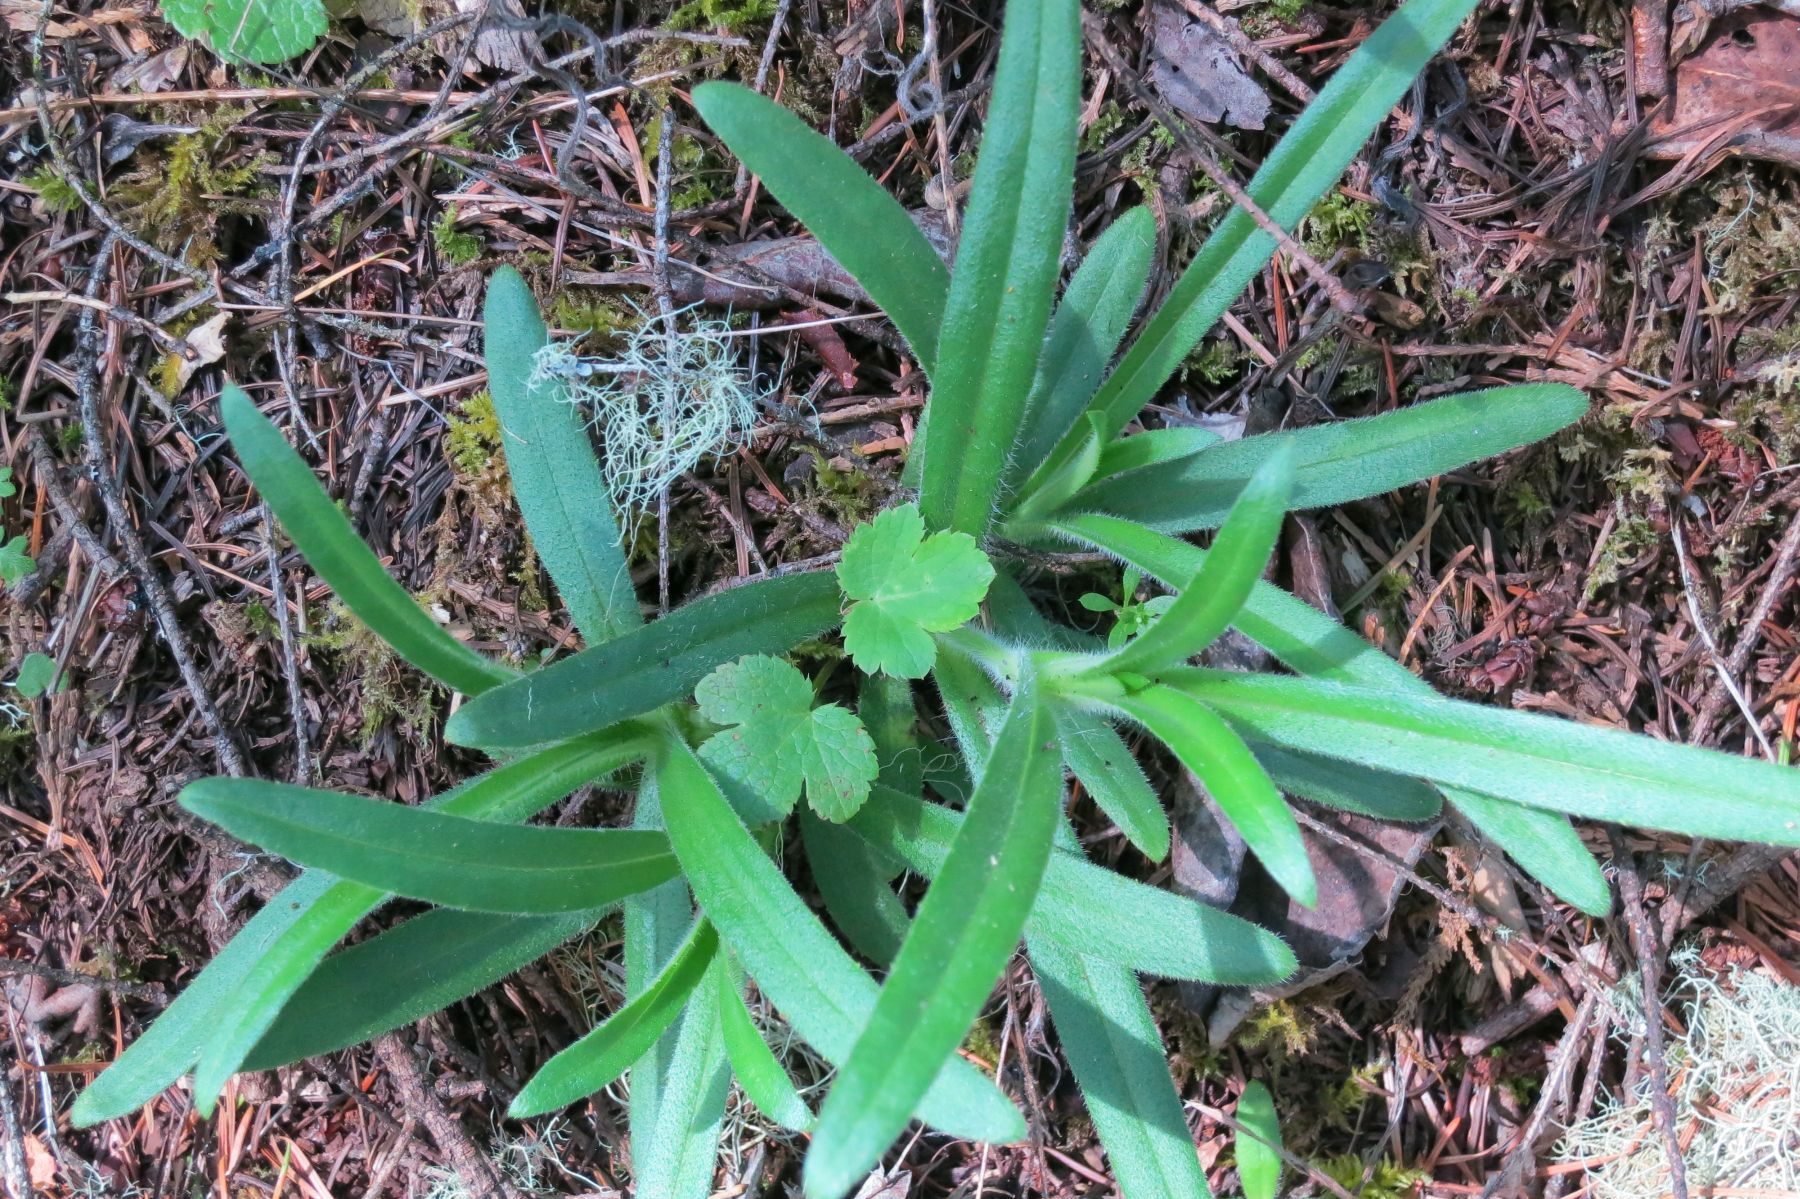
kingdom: Plantae
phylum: Tracheophyta
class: Magnoliopsida
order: Asterales
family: Asteraceae
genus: Anisocarpus
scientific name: Anisocarpus madioides
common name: Woodland madia
